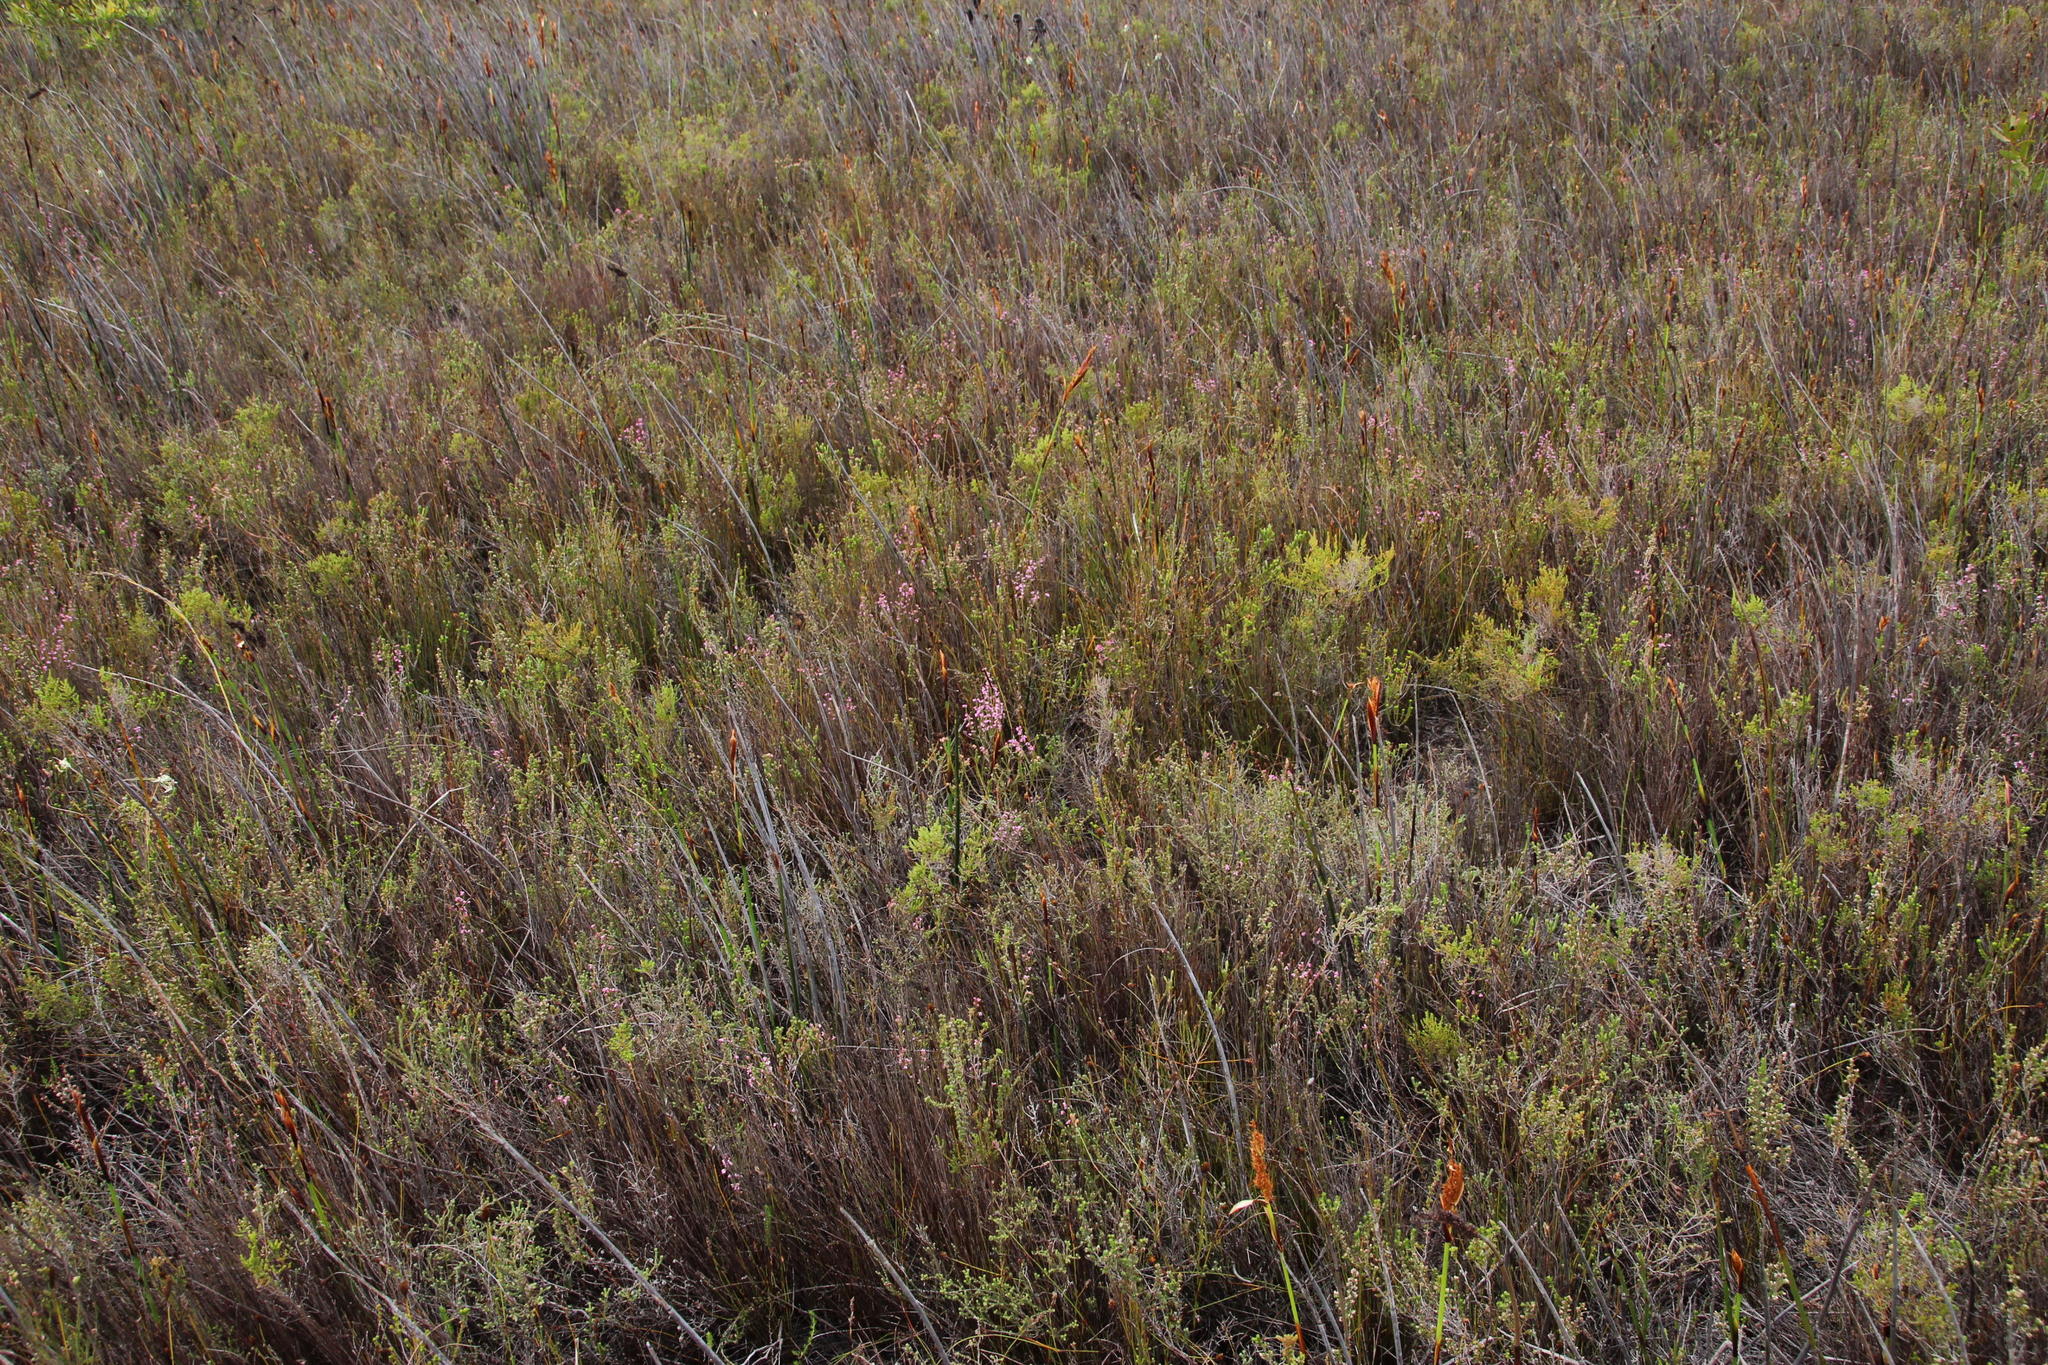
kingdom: Plantae
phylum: Tracheophyta
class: Magnoliopsida
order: Ericales
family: Ericaceae
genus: Erica
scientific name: Erica gnaphaloides
